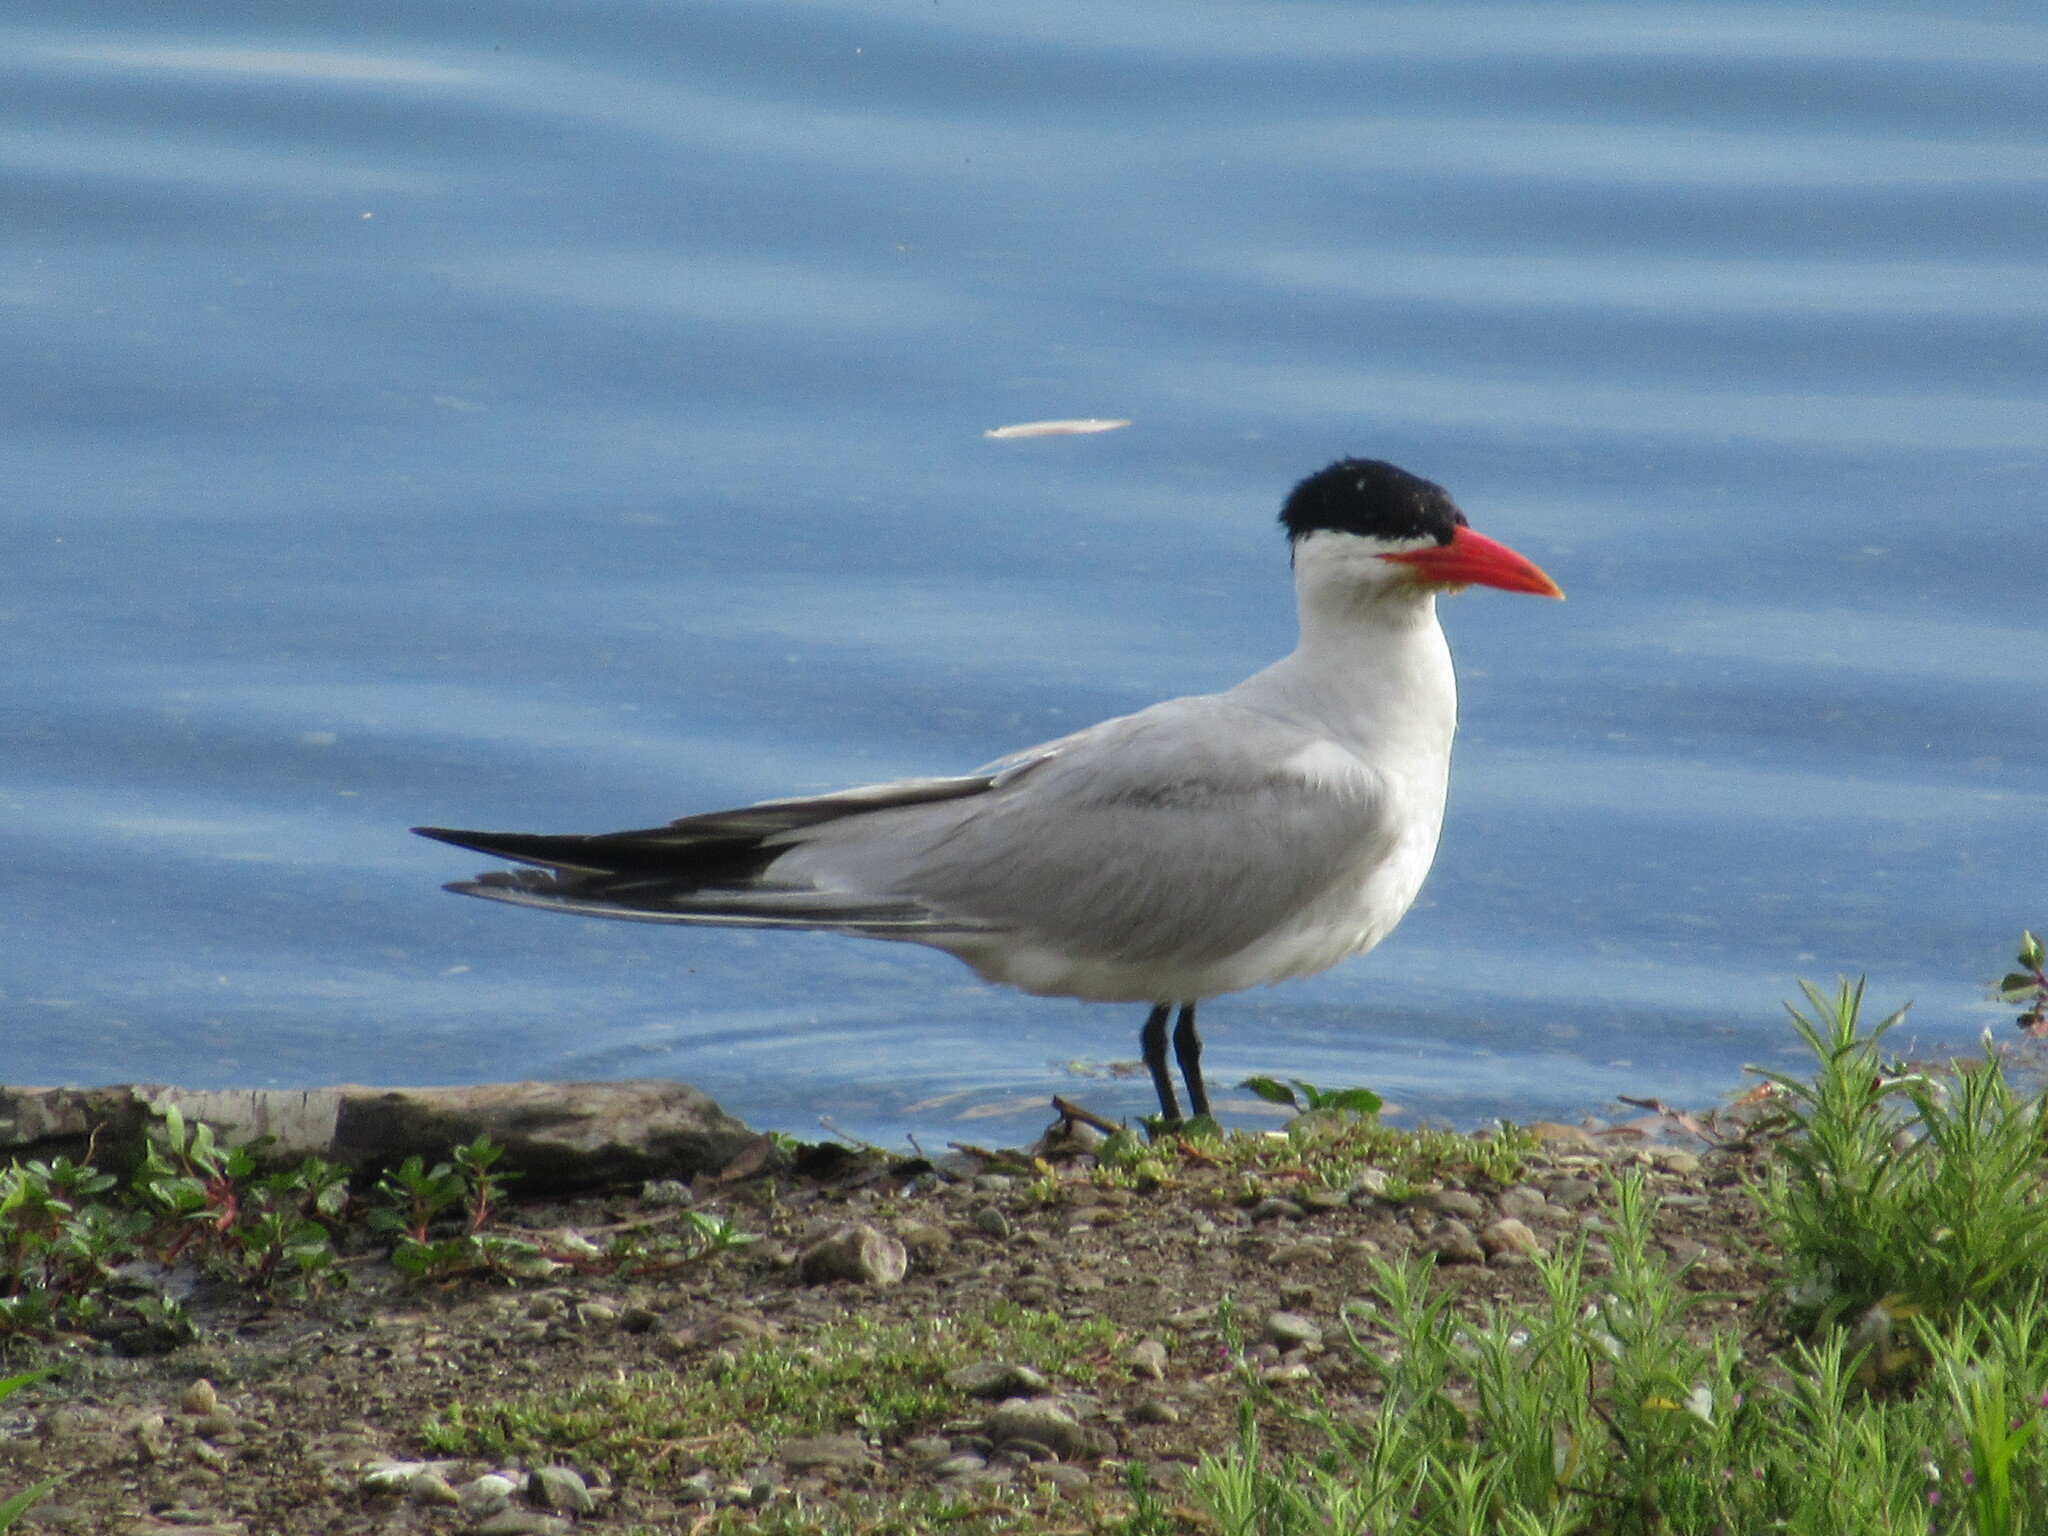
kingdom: Animalia
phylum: Chordata
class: Aves
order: Charadriiformes
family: Laridae
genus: Hydroprogne
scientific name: Hydroprogne caspia
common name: Caspian tern
